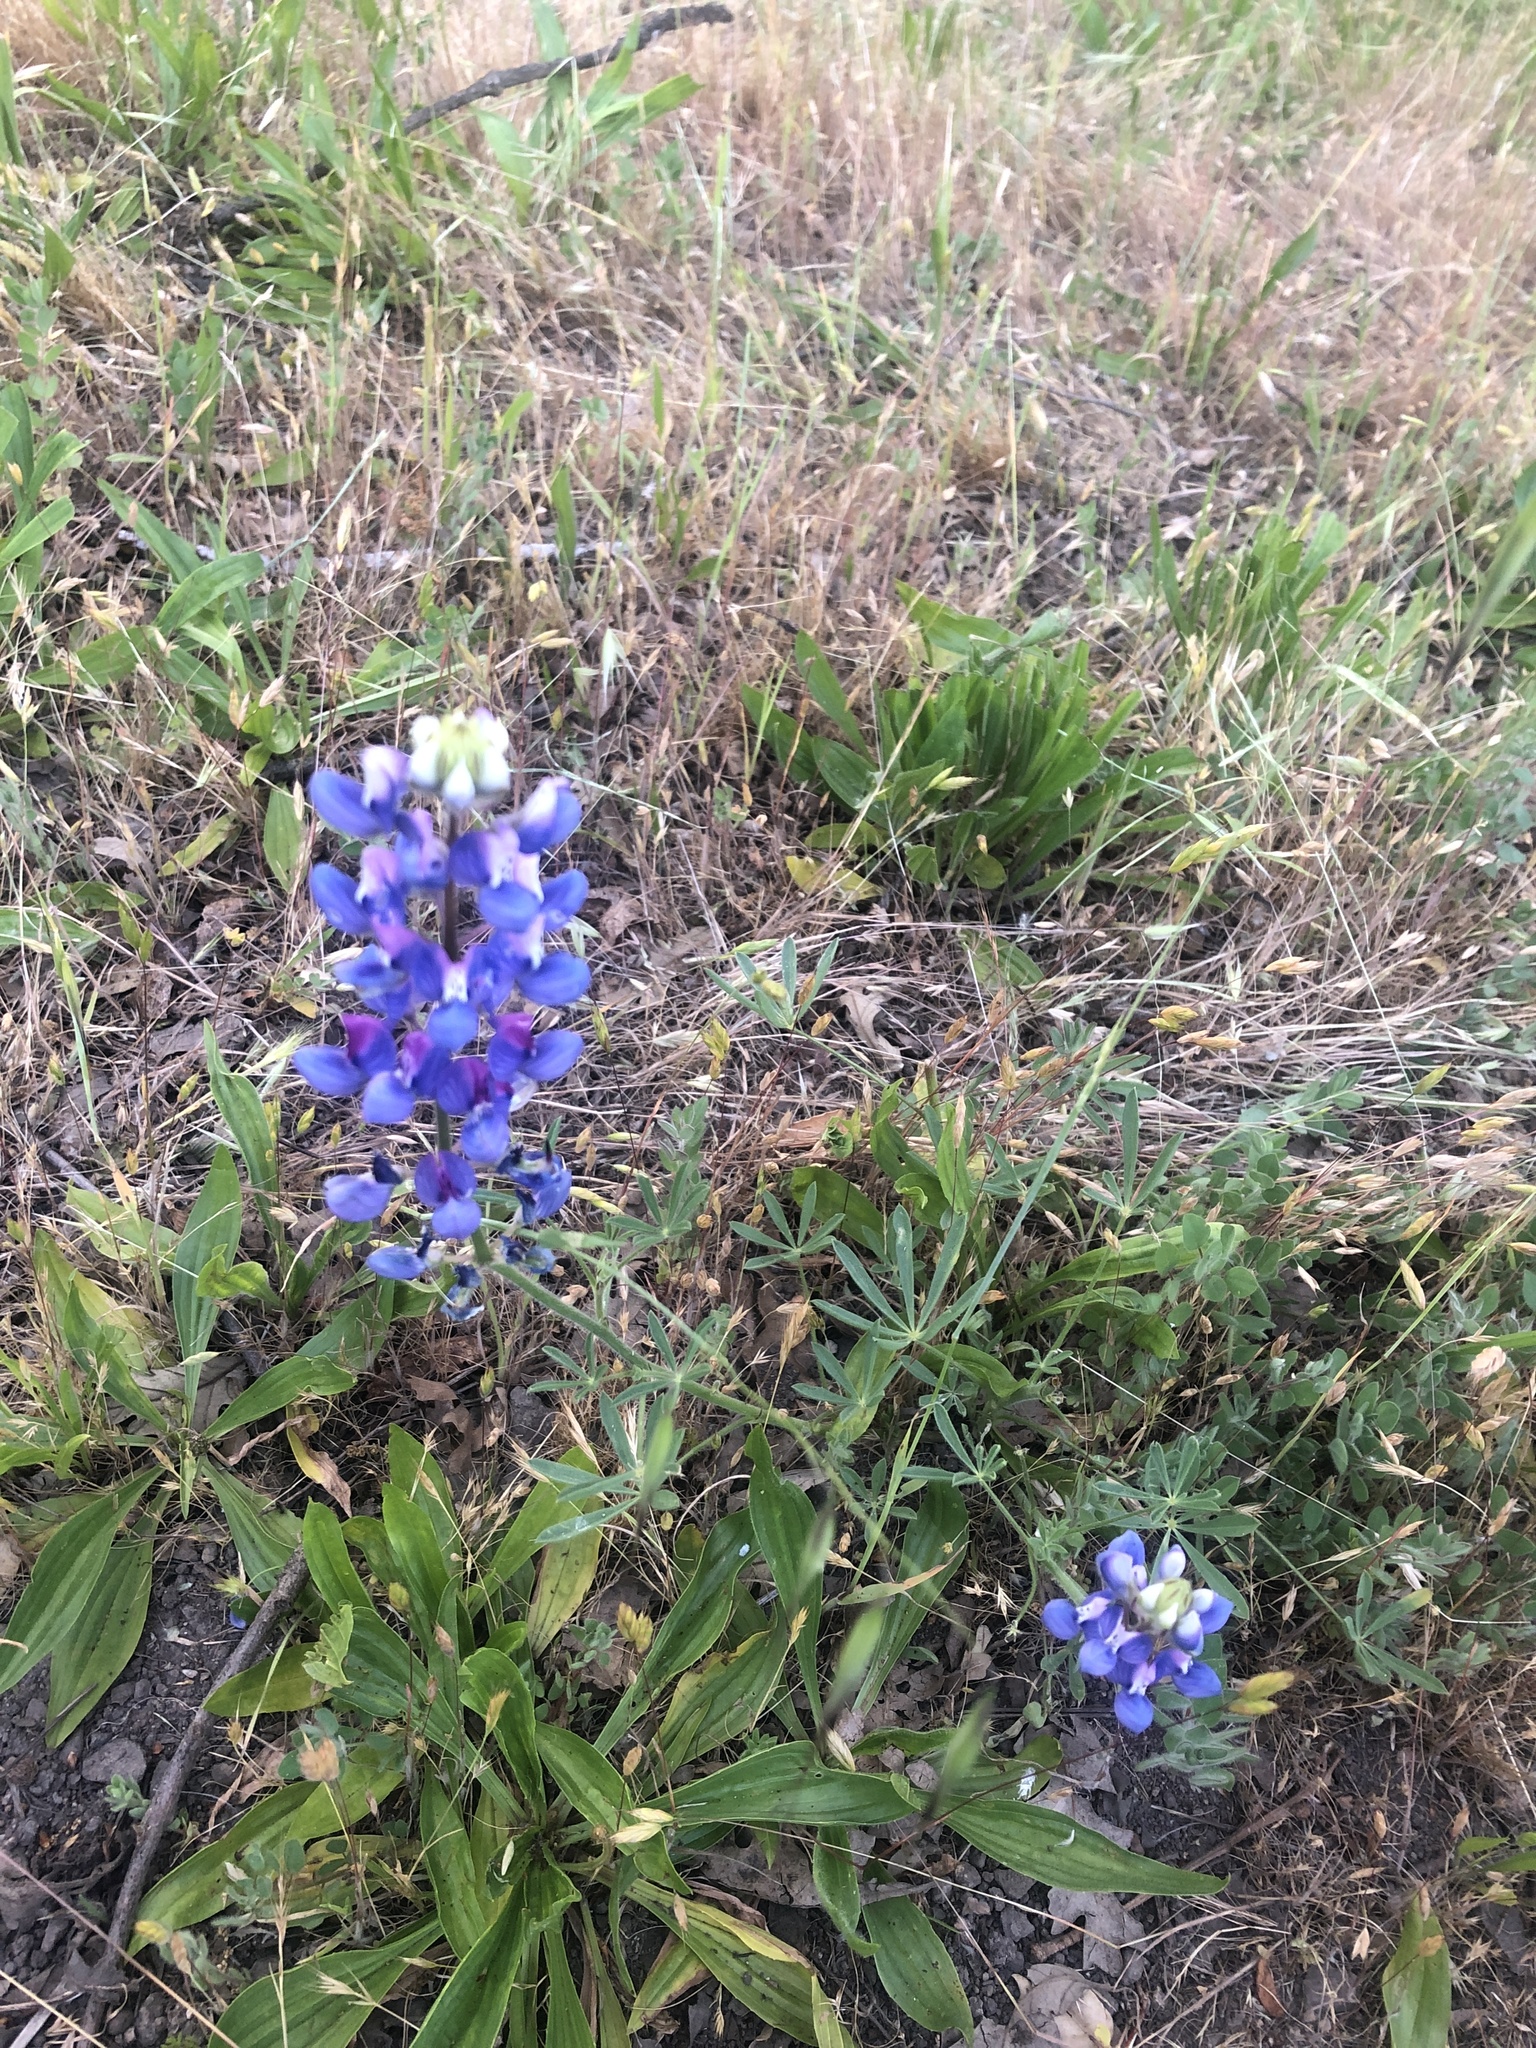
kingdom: Plantae
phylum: Tracheophyta
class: Magnoliopsida
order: Fabales
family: Fabaceae
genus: Lupinus
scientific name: Lupinus nanus
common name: Orean blue lupin
